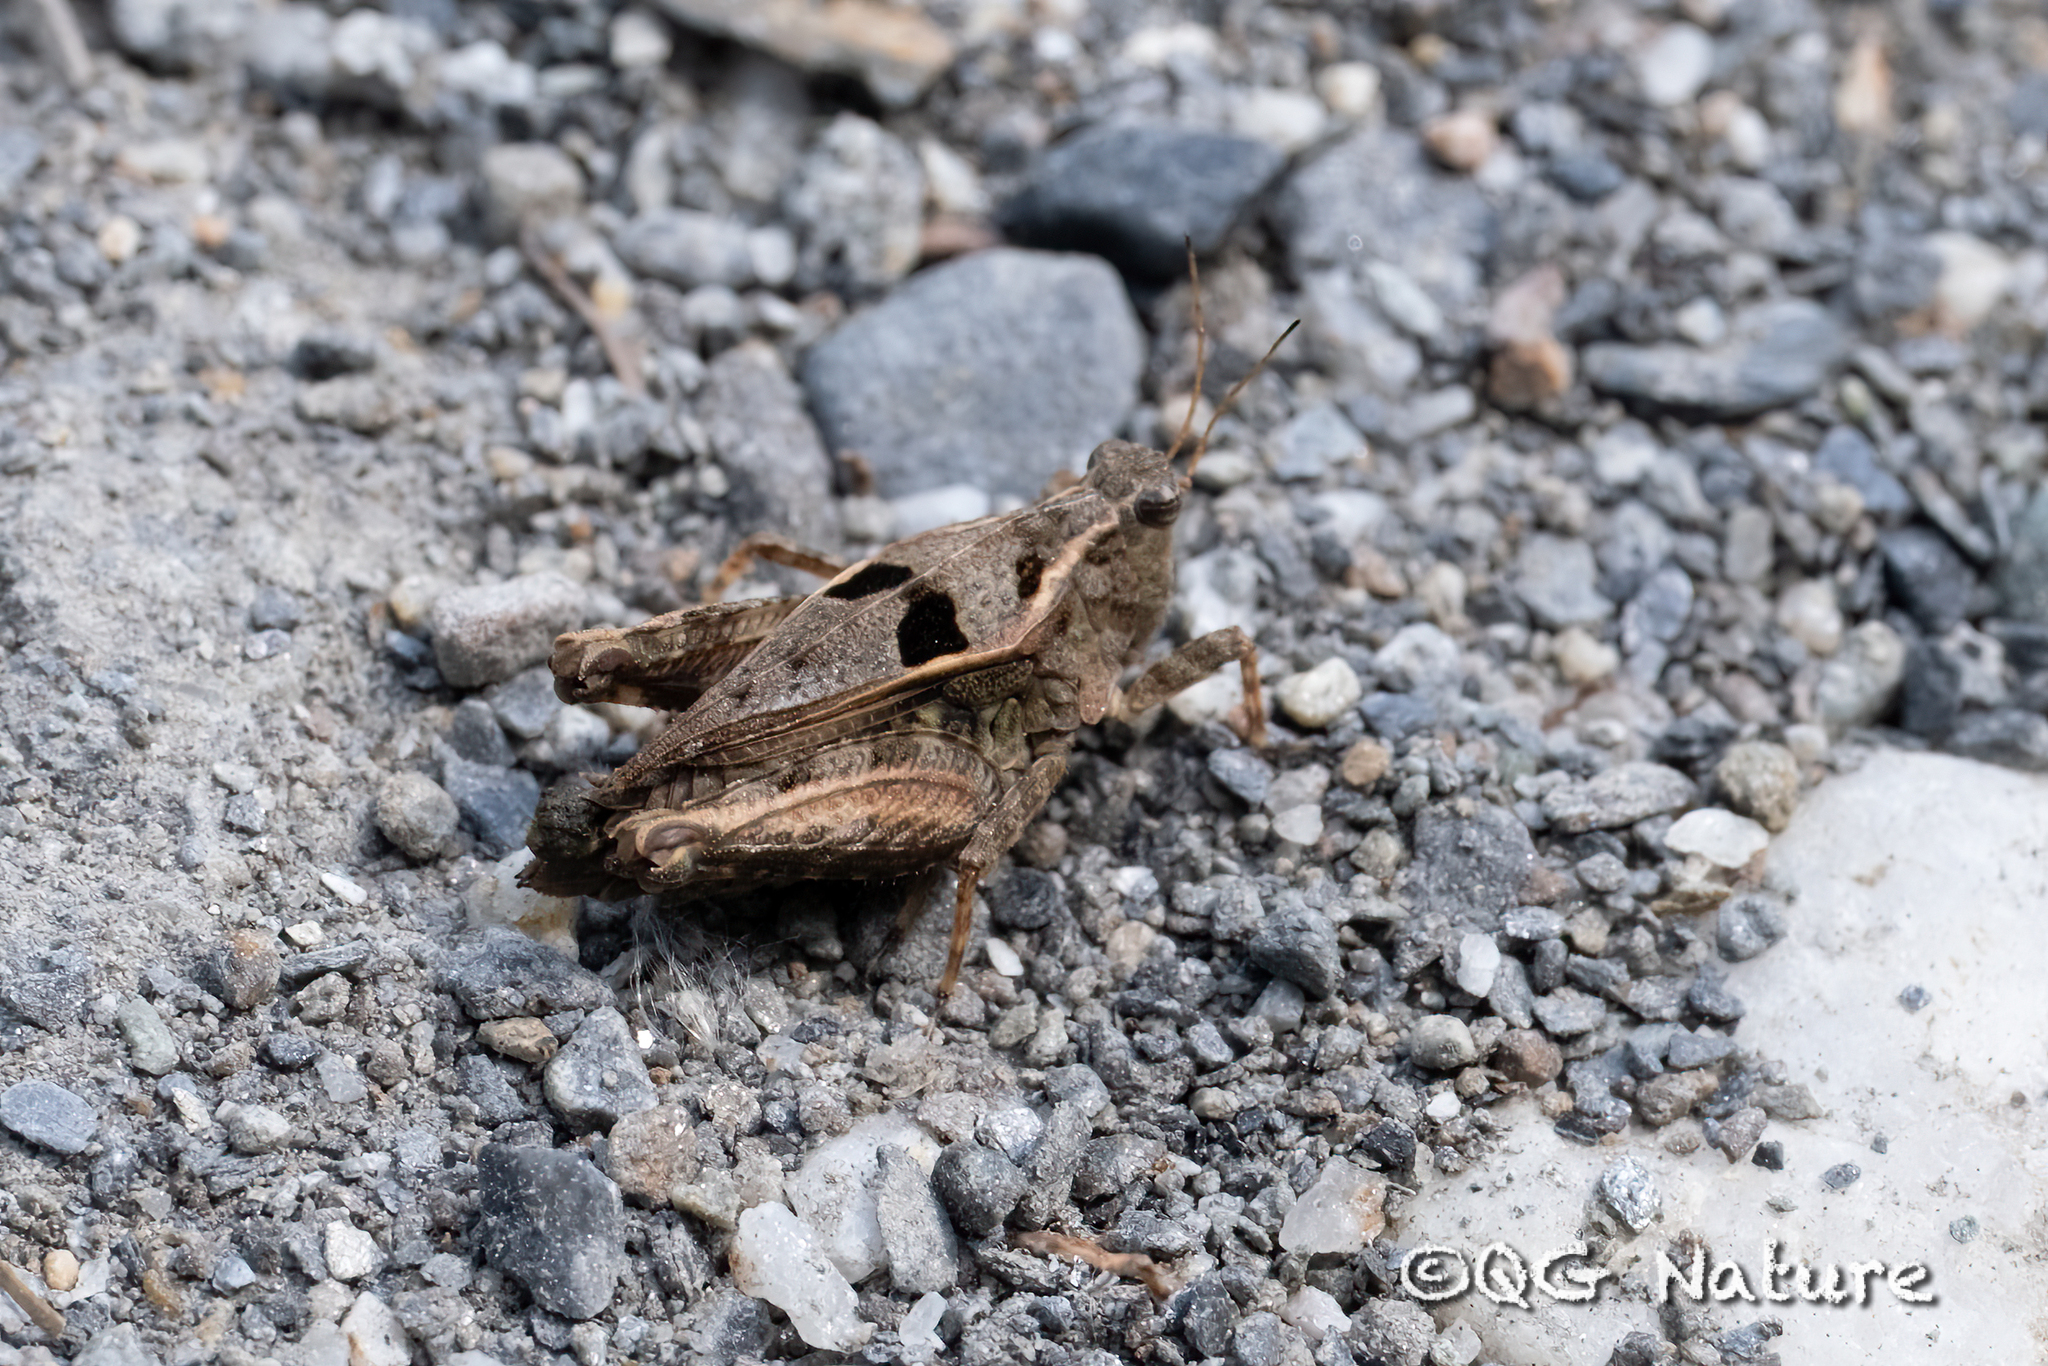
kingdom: Animalia
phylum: Arthropoda
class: Insecta
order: Orthoptera
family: Tetrigidae
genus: Tetrix
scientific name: Tetrix japonica
